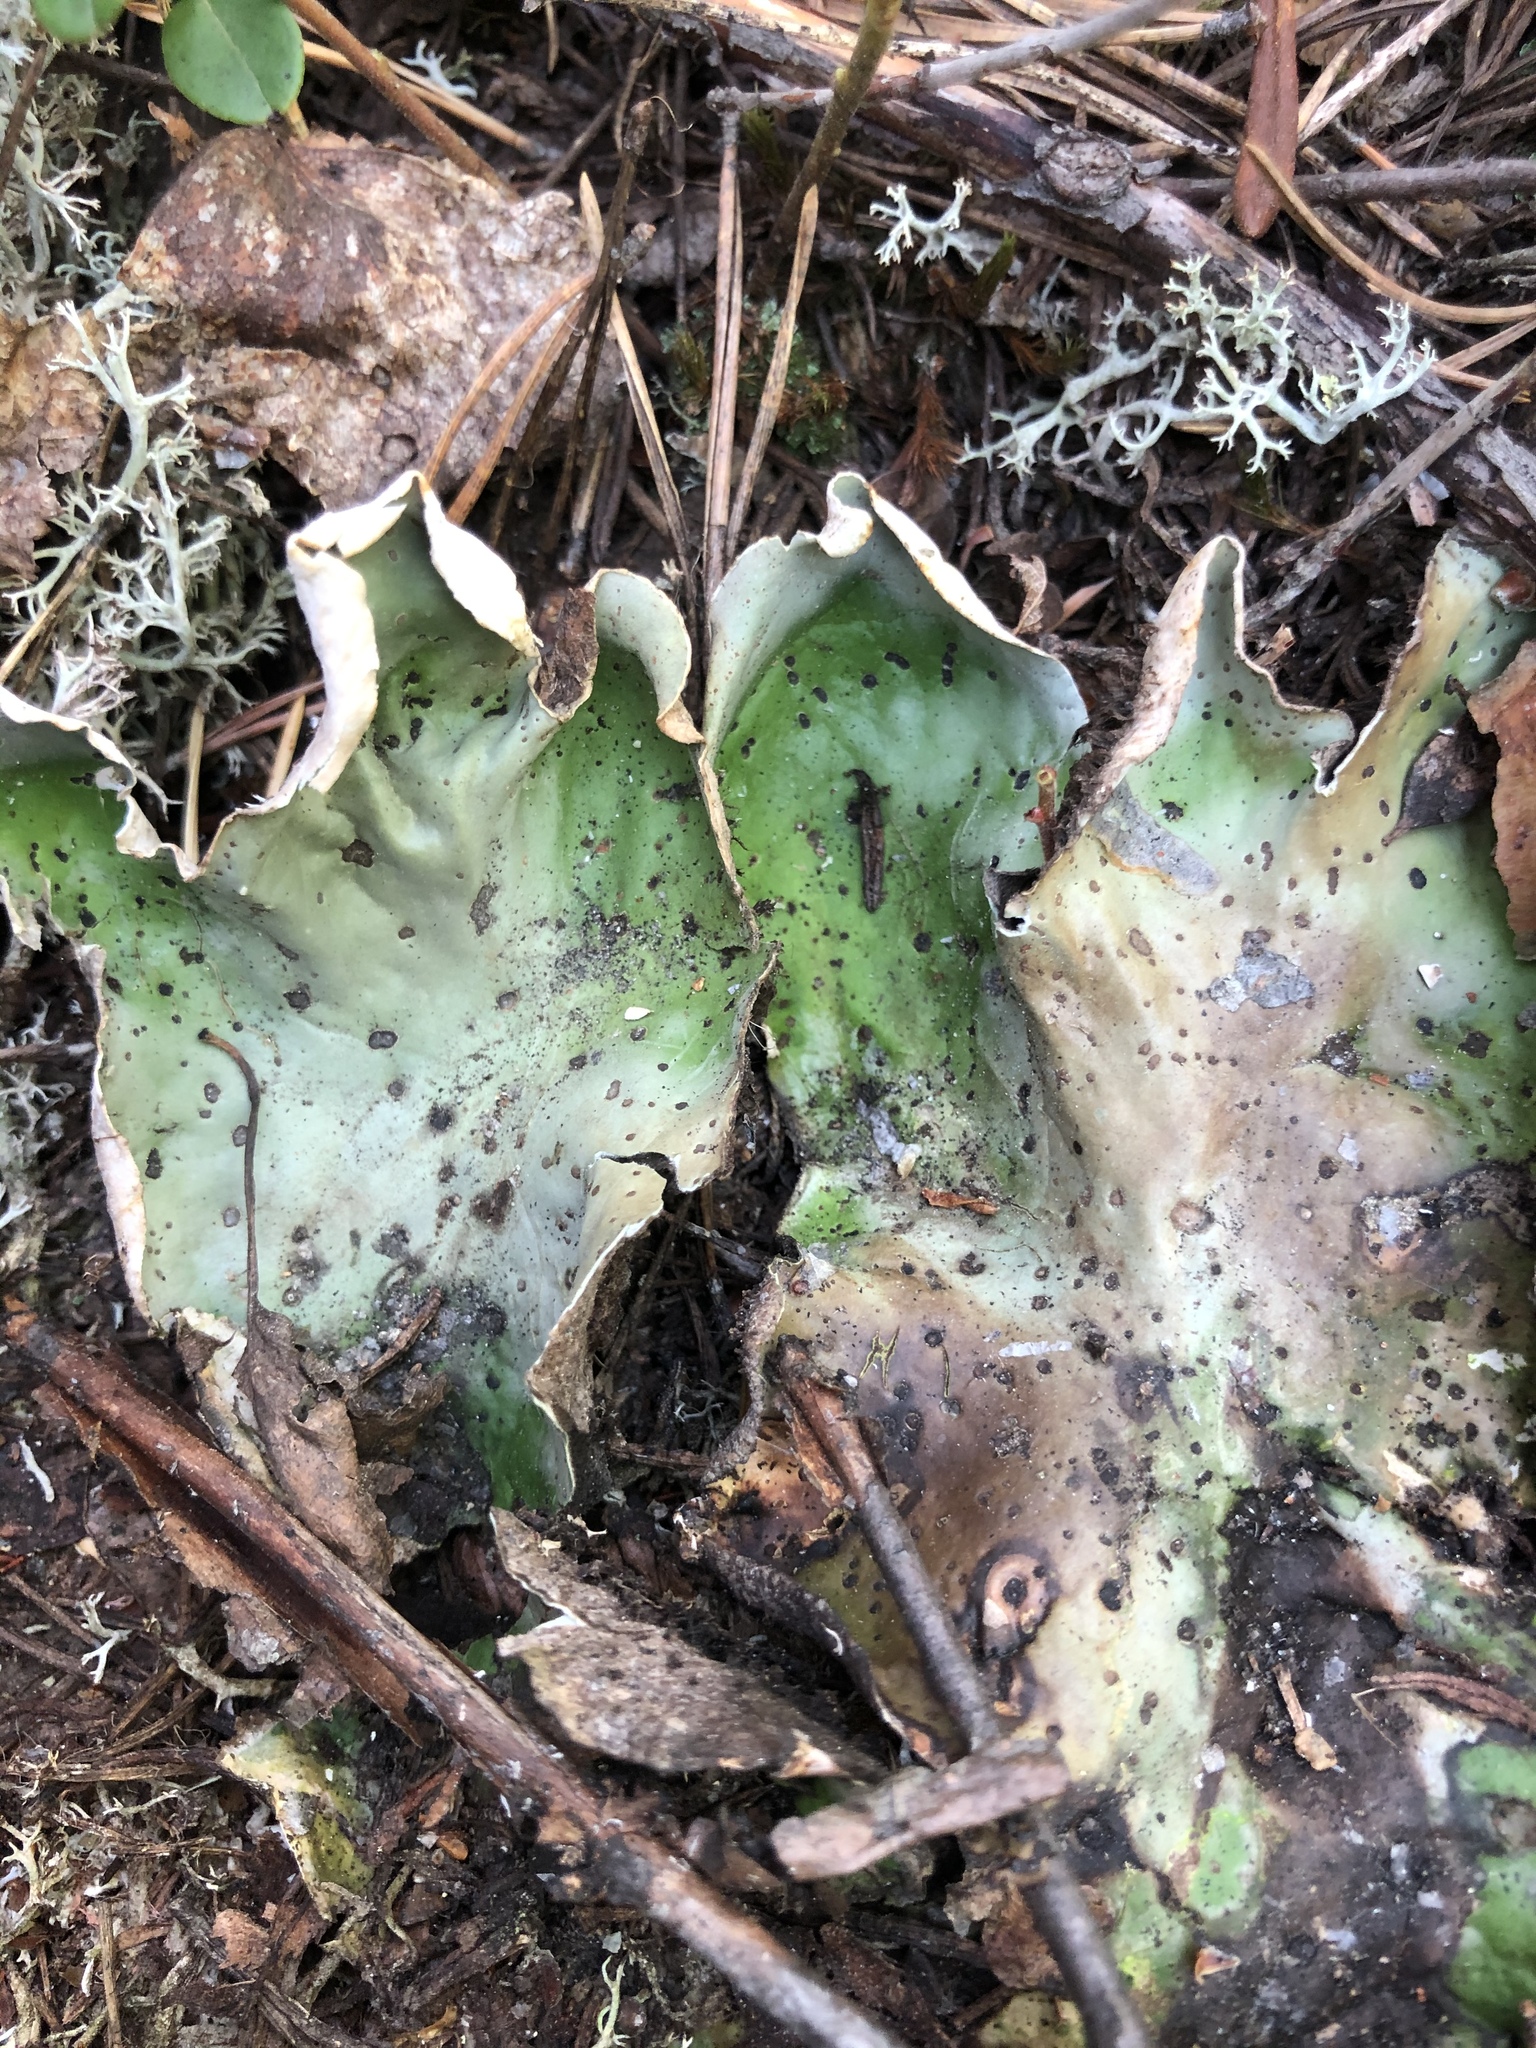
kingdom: Fungi
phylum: Ascomycota
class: Lecanoromycetes
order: Peltigerales
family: Peltigeraceae
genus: Peltigera
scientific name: Peltigera aphthosa
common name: Common freckle pelt lichen
